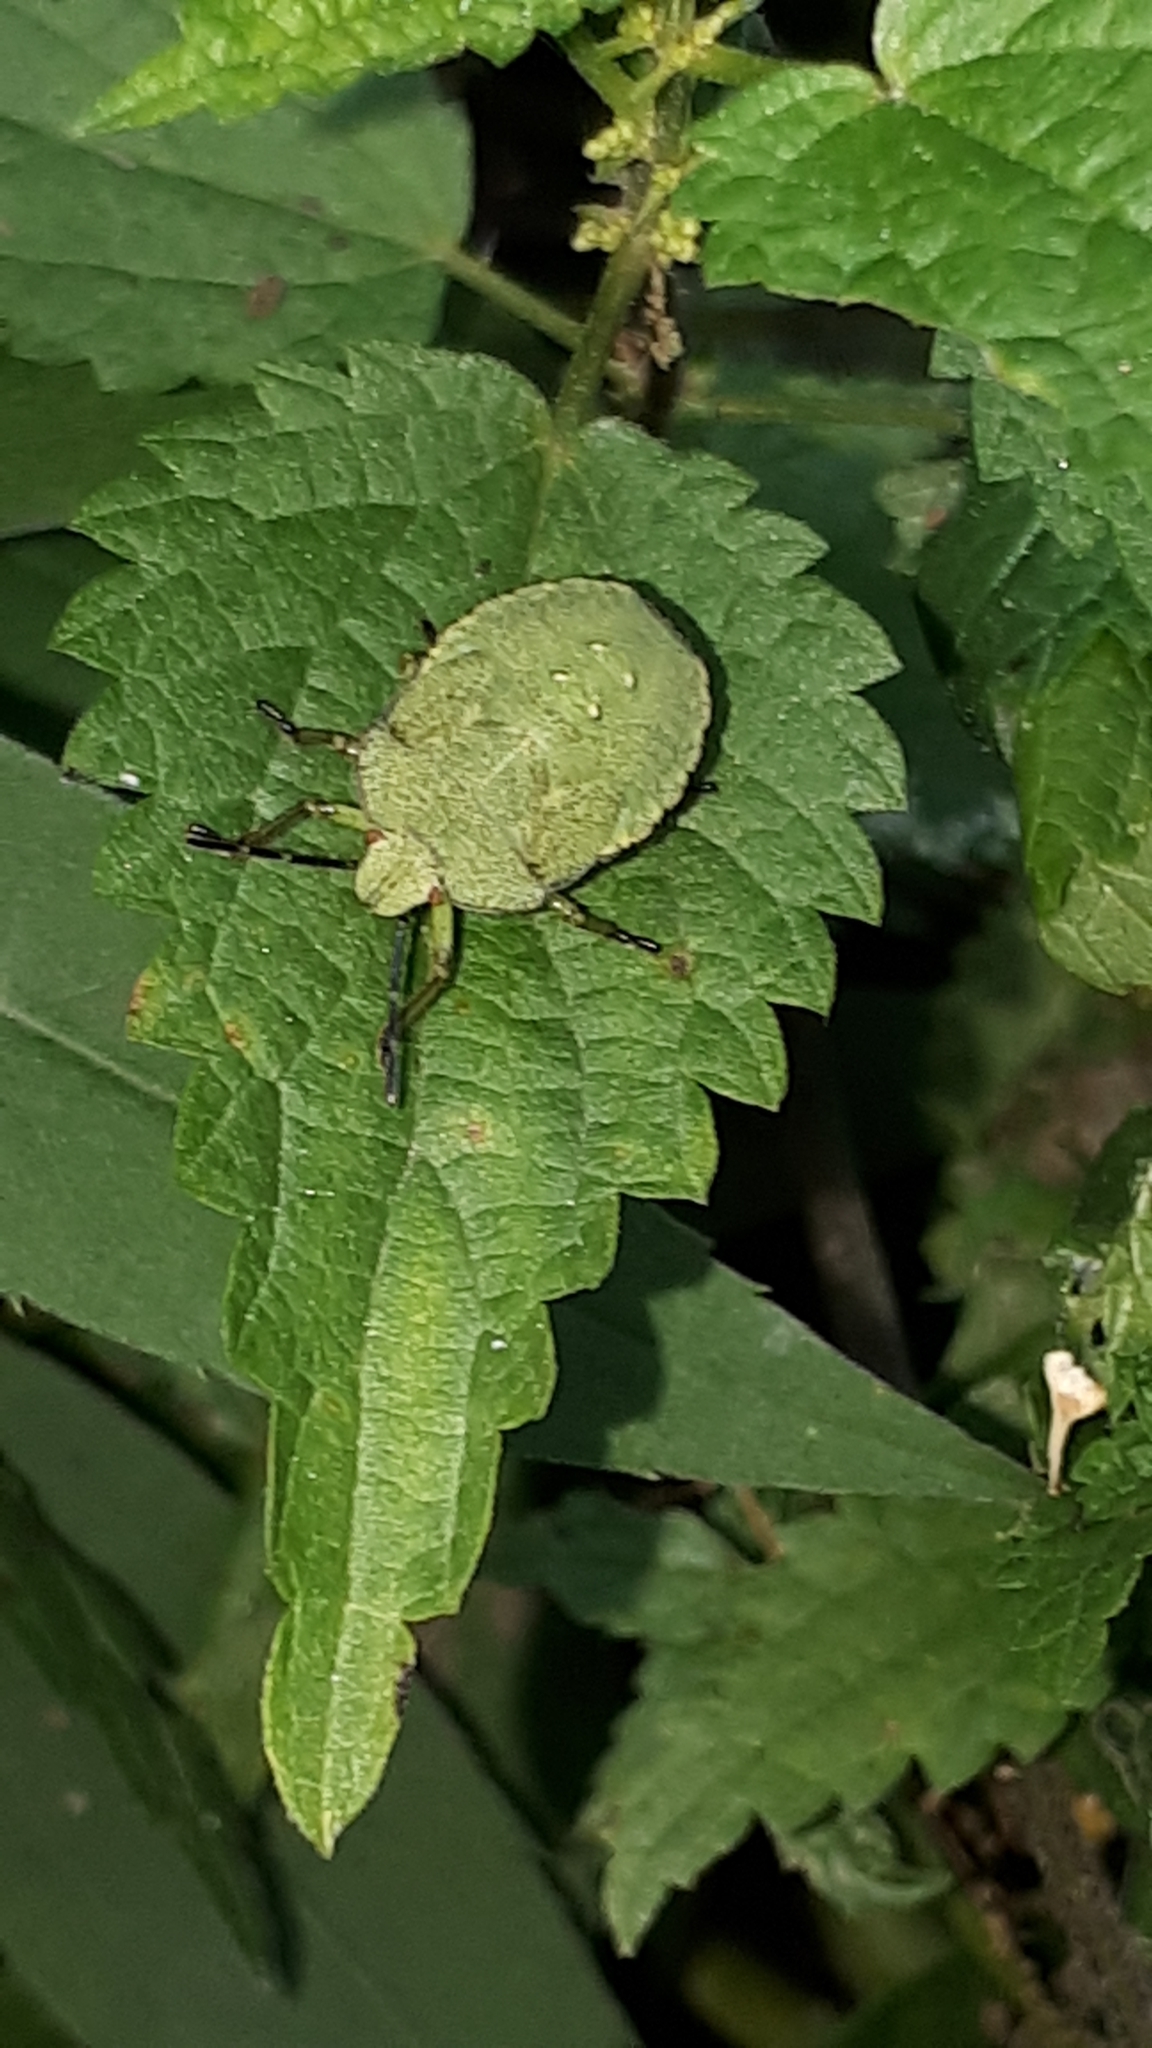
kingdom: Animalia
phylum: Arthropoda
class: Insecta
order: Hemiptera
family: Pentatomidae
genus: Palomena
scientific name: Palomena prasina
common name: Green shieldbug
